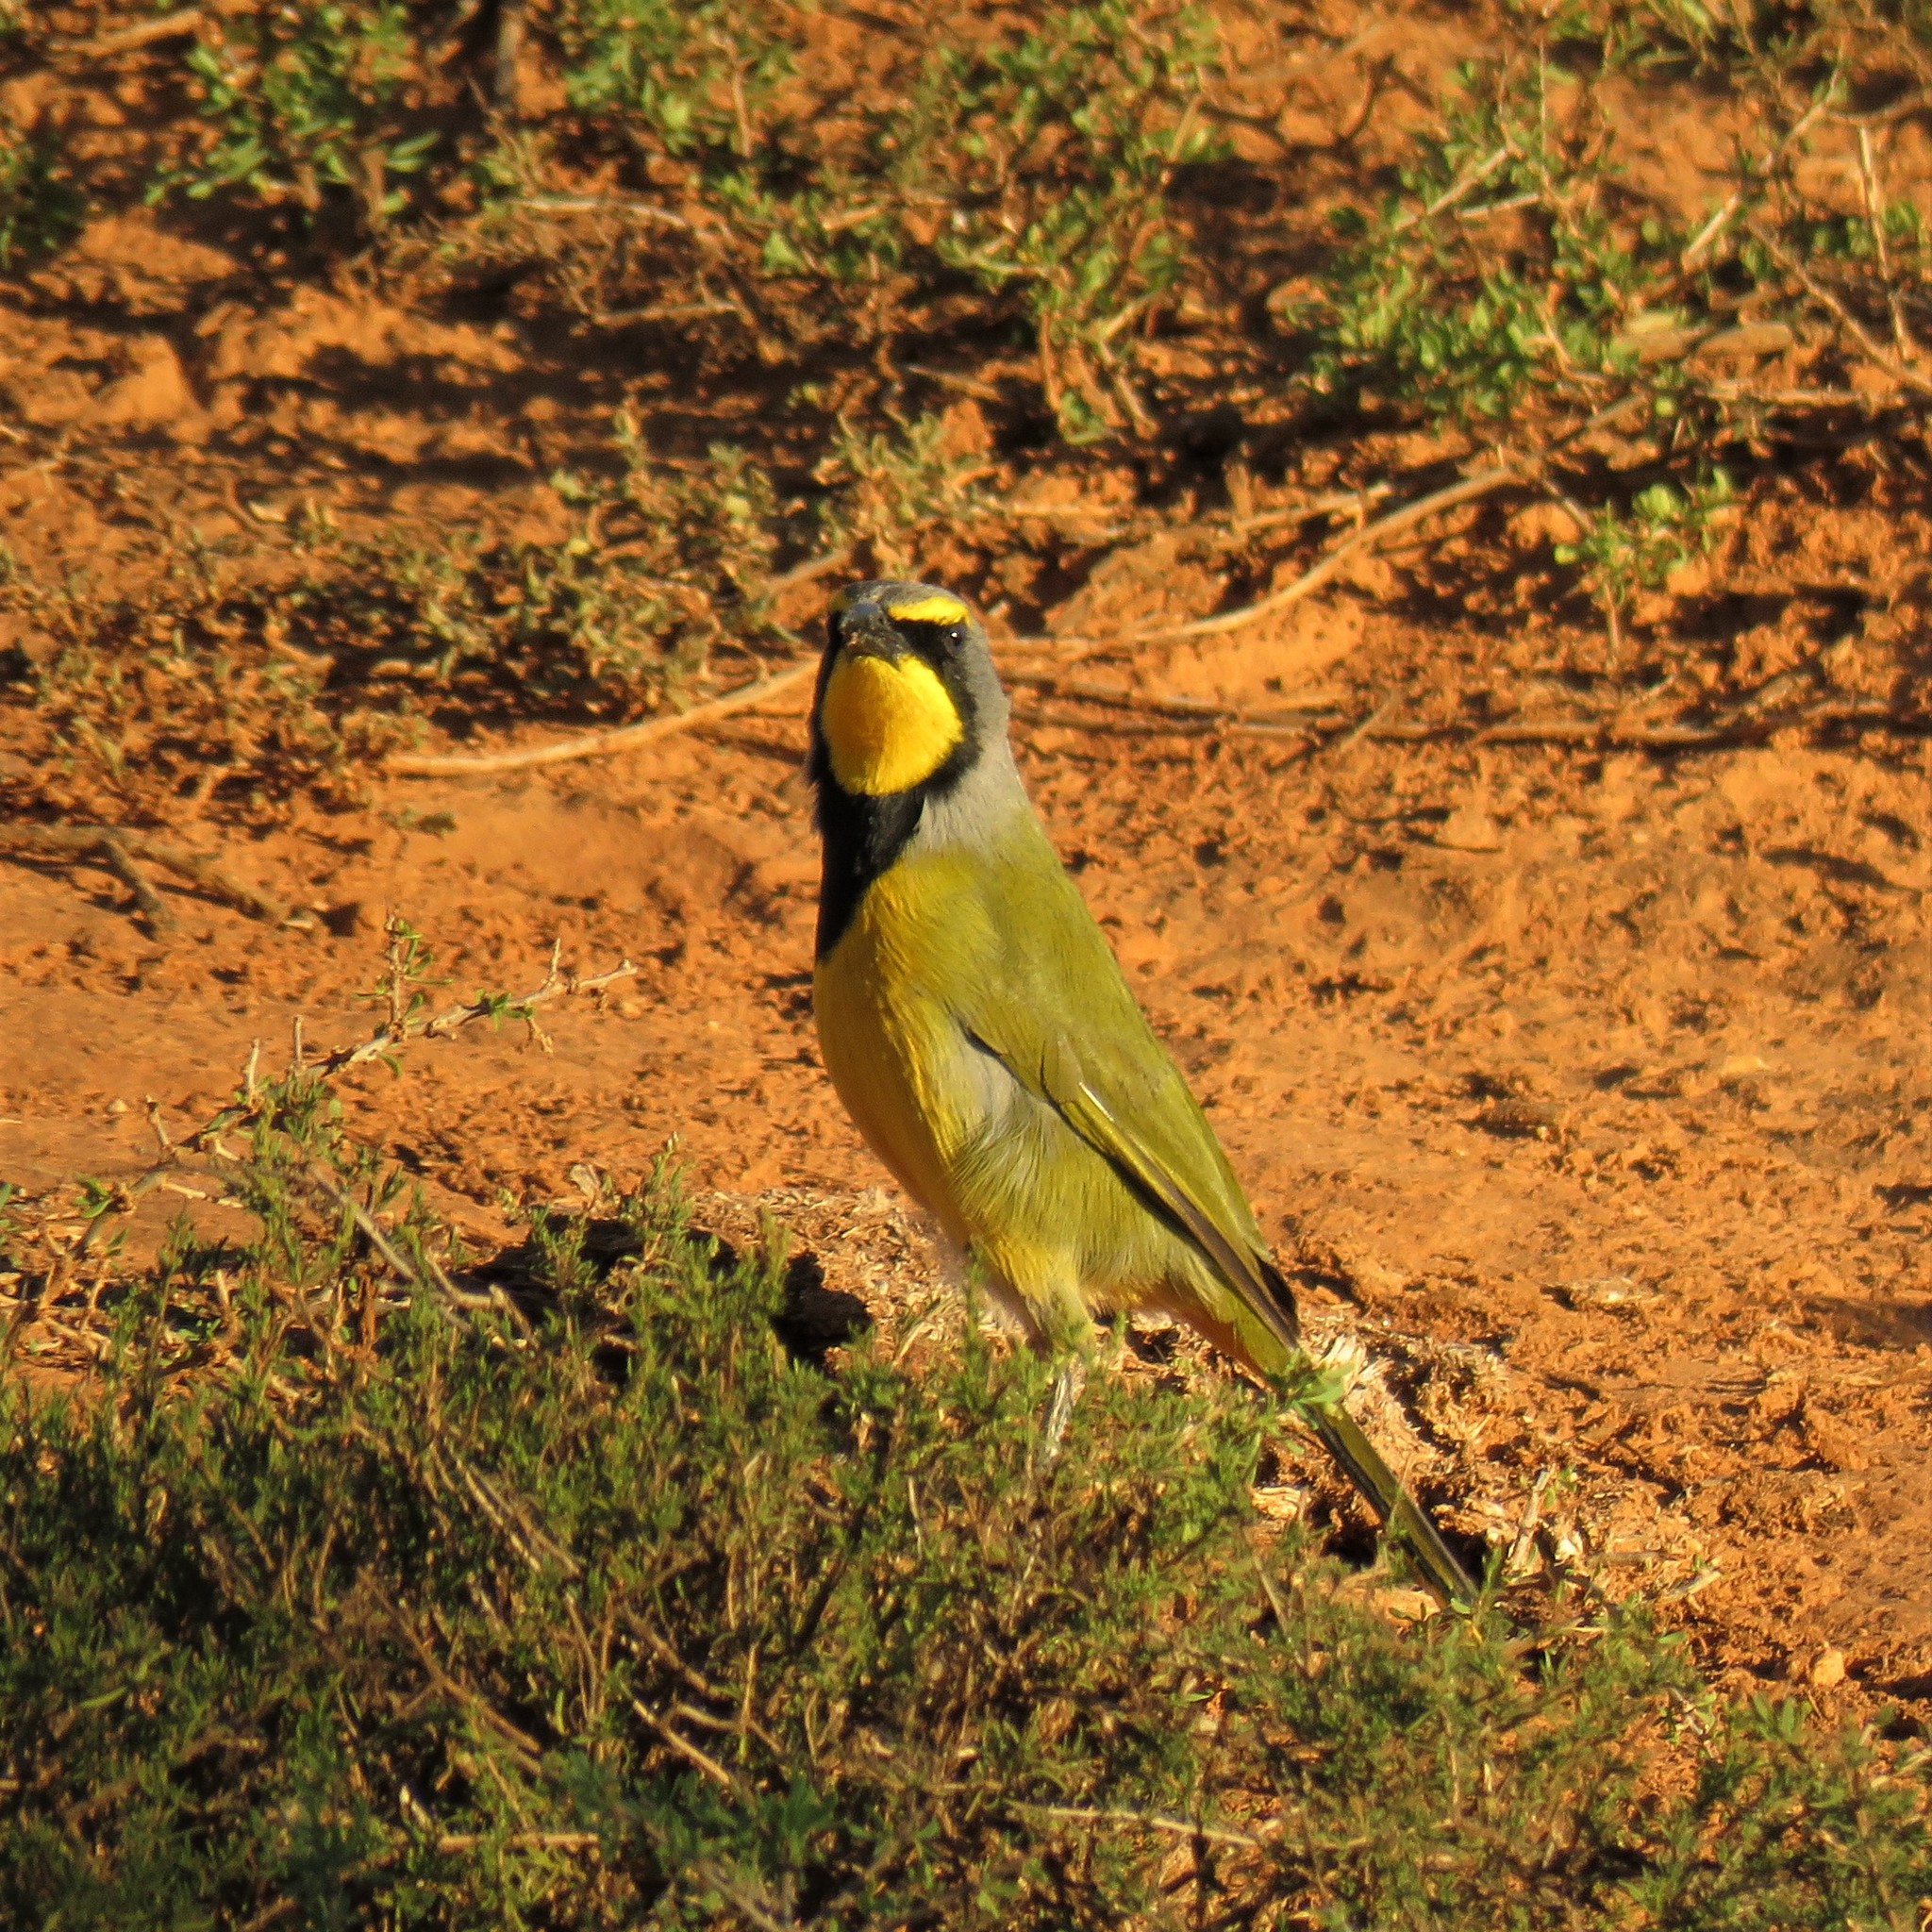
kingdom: Animalia
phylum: Chordata
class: Aves
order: Passeriformes
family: Malaconotidae
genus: Telophorus
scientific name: Telophorus zeylonus
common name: Bokmakierie
